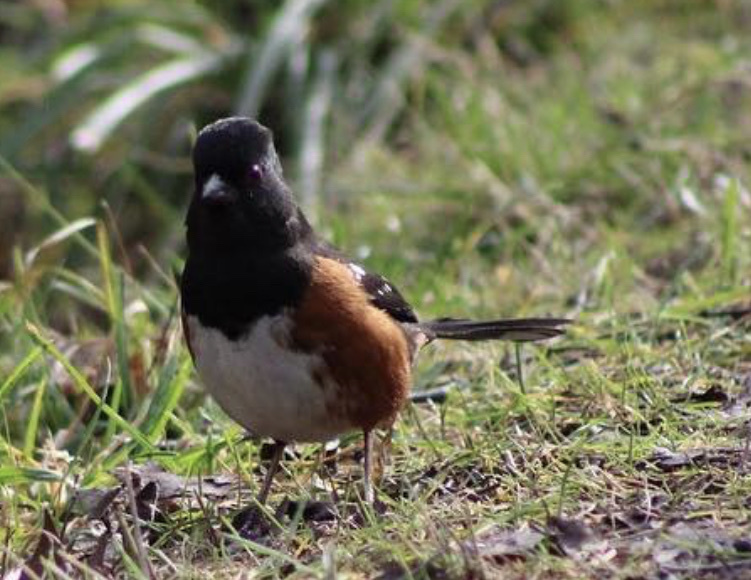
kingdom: Animalia
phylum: Chordata
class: Aves
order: Passeriformes
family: Passerellidae
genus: Pipilo
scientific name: Pipilo maculatus
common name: Spotted towhee
